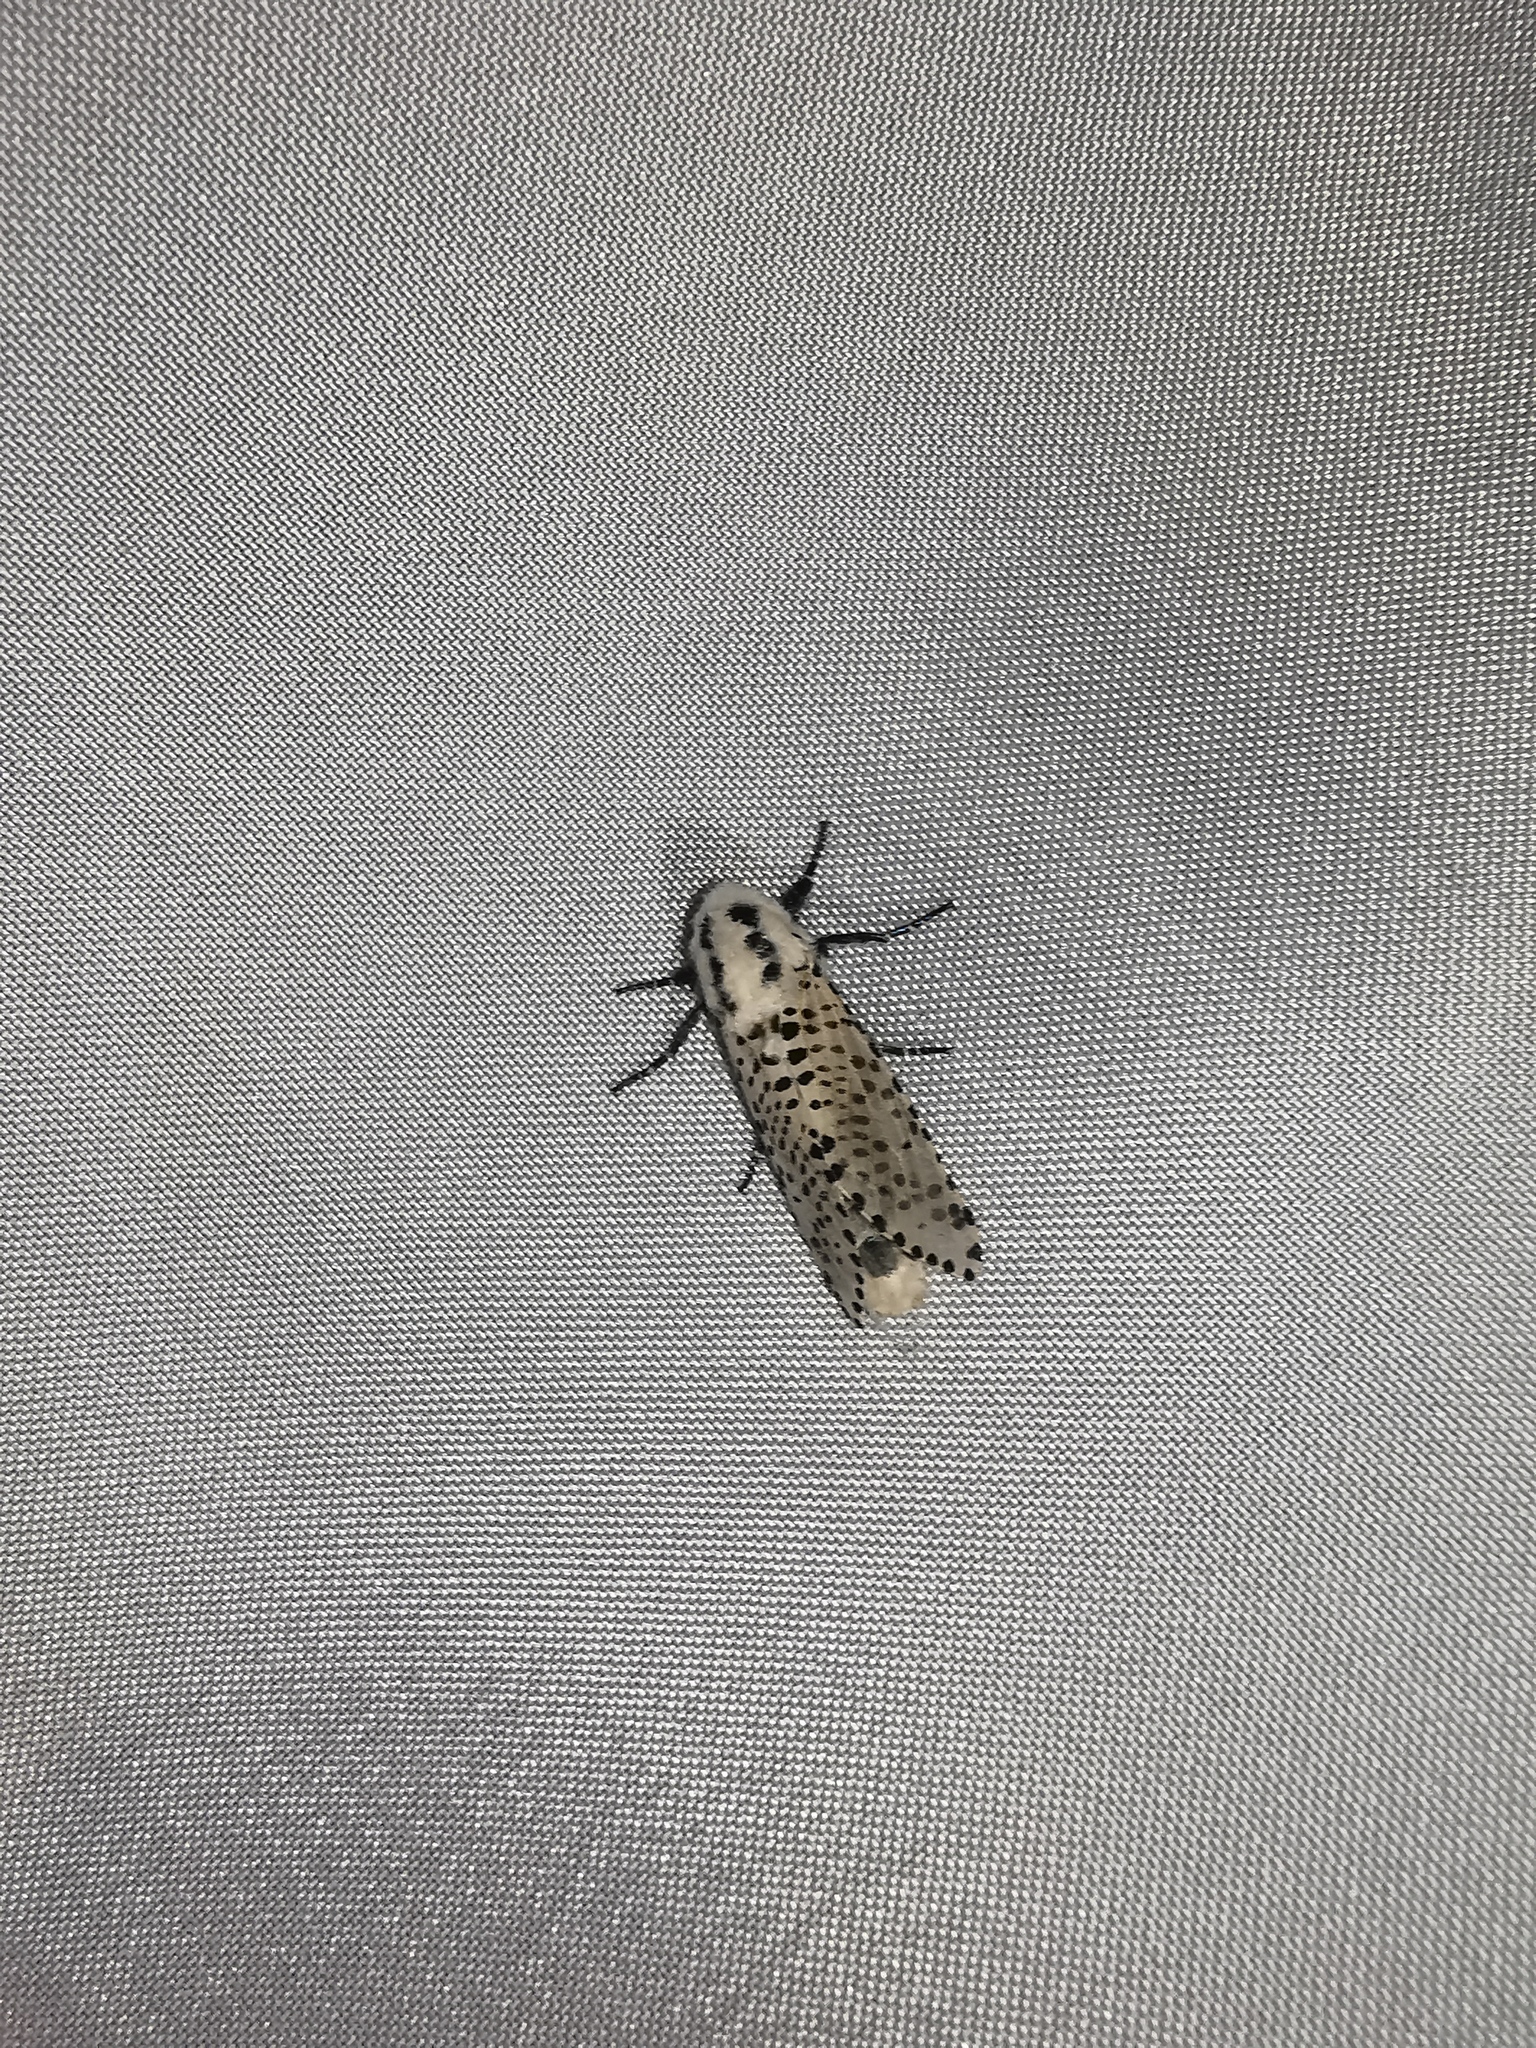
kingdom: Animalia
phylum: Arthropoda
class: Insecta
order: Lepidoptera
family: Cossidae
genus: Zeuzera
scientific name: Zeuzera pyrina
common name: Leopard moth
